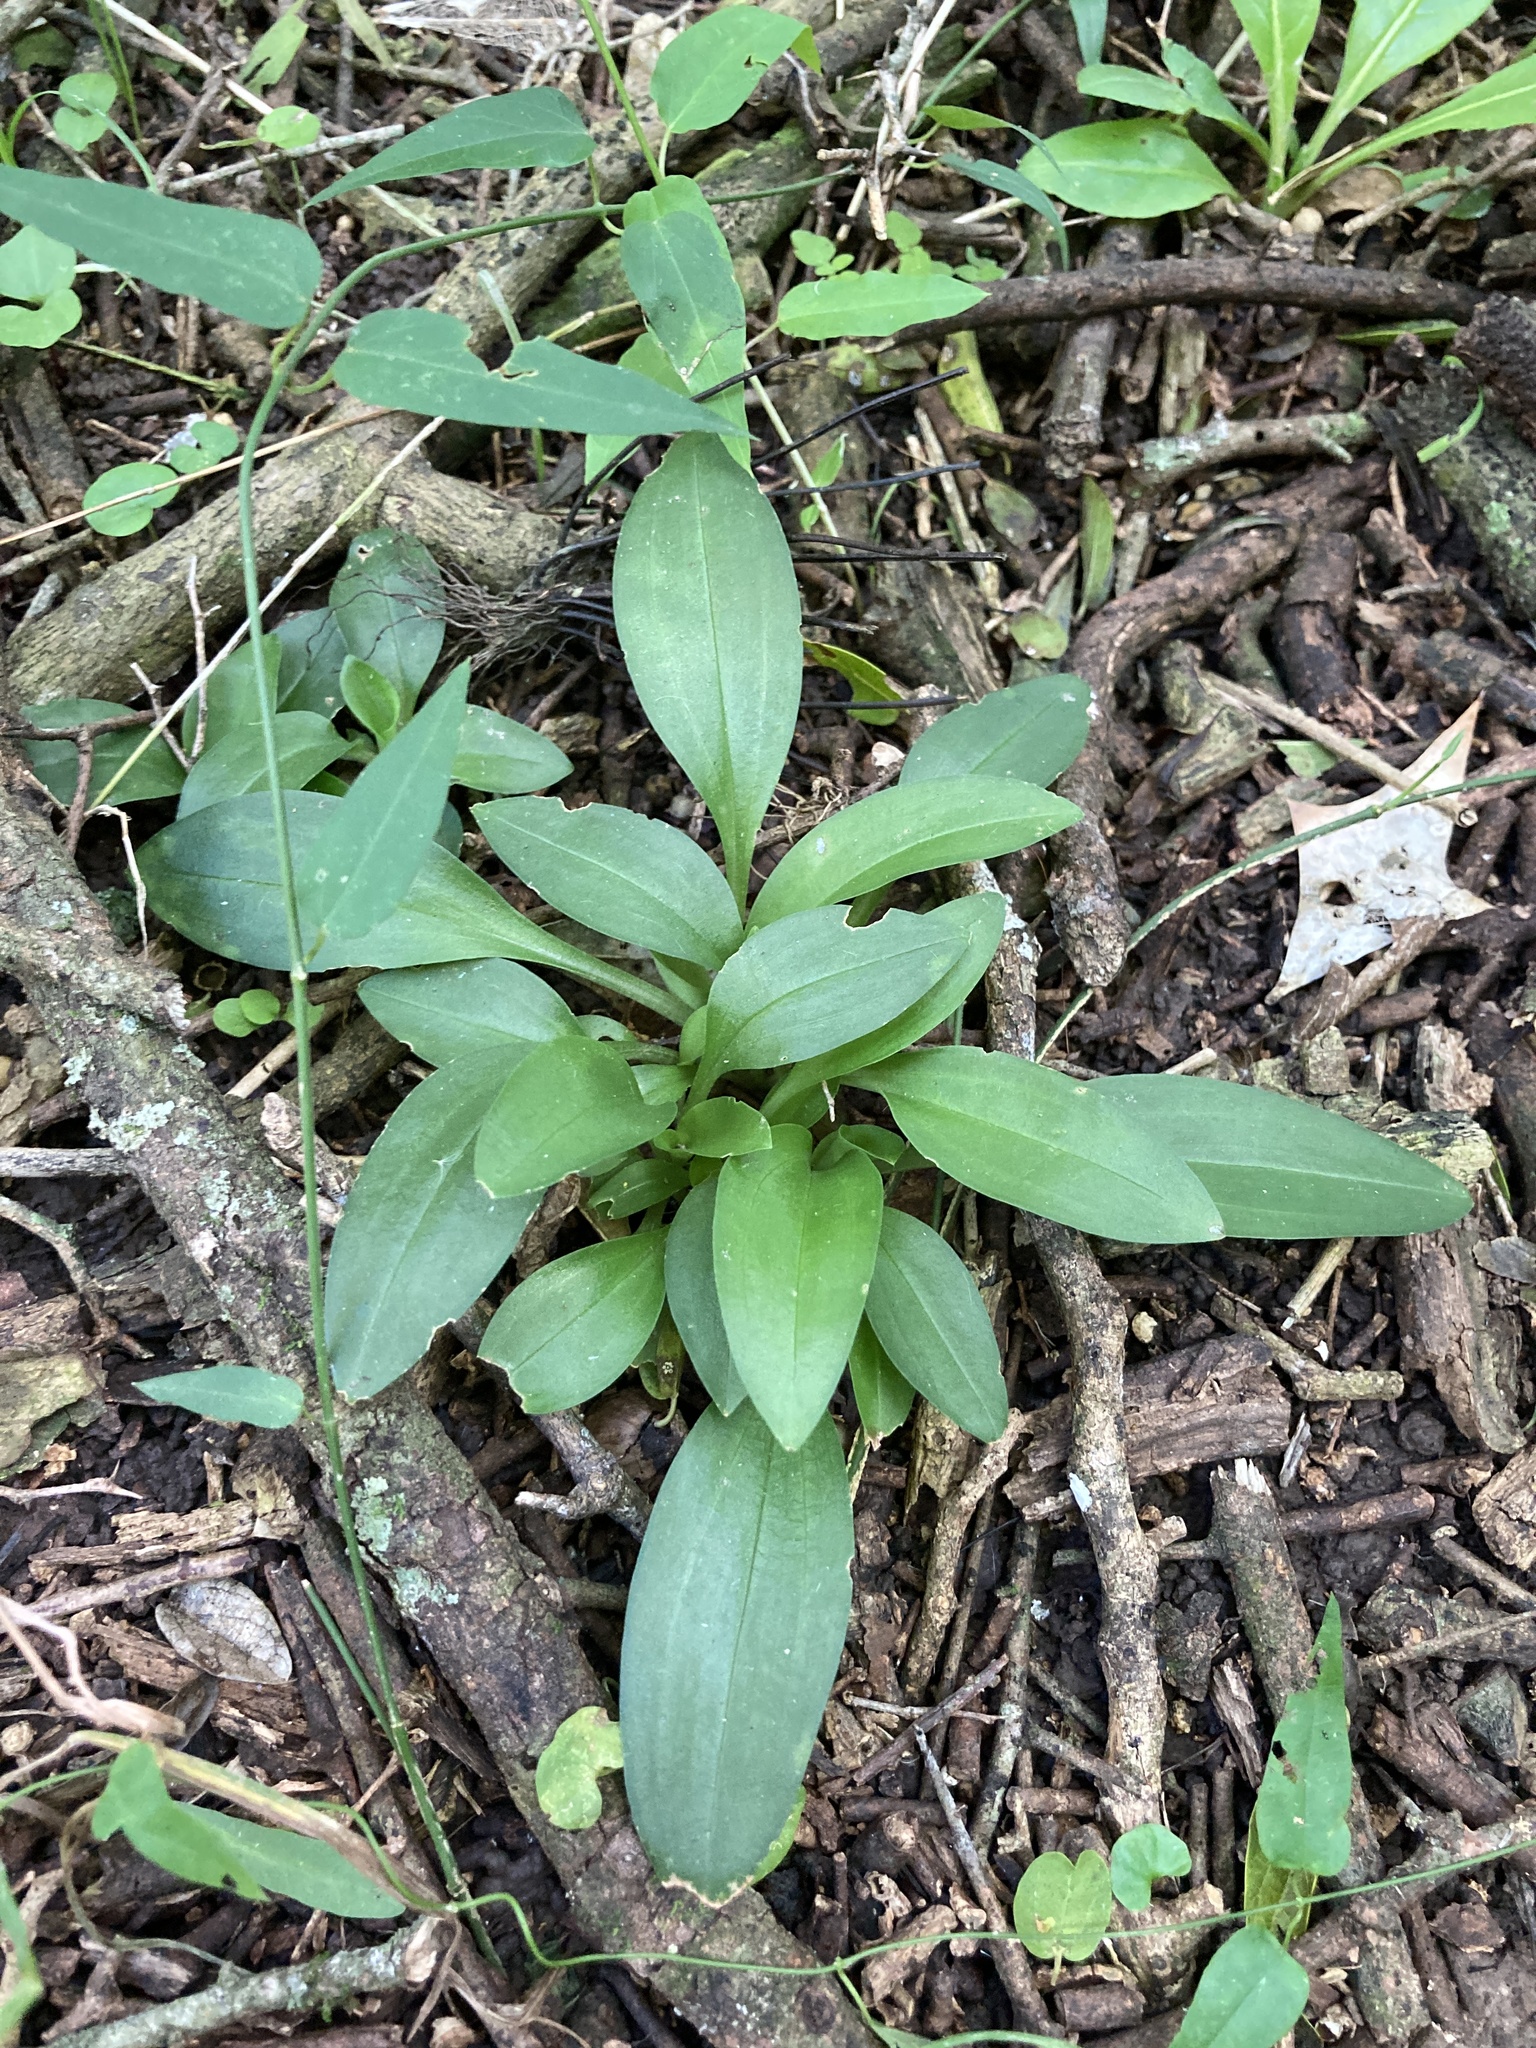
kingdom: Plantae
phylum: Tracheophyta
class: Liliopsida
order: Asparagales
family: Orchidaceae
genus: Cyclopogon
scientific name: Cyclopogon elatus
